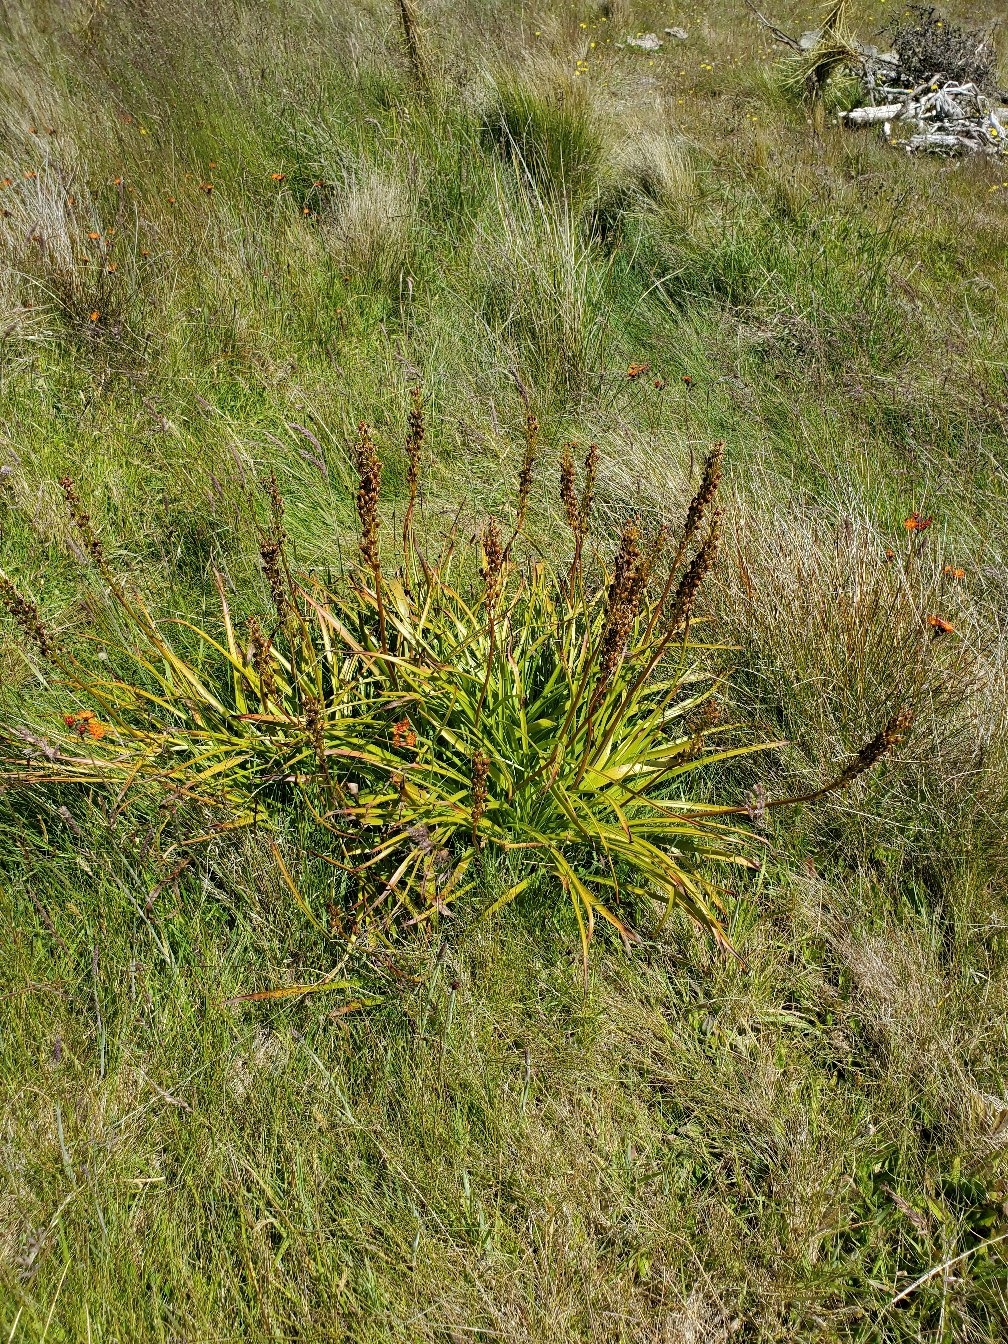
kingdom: Plantae
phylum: Tracheophyta
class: Liliopsida
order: Asparagales
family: Asphodelaceae
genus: Bulbinella
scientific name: Bulbinella hookeri
